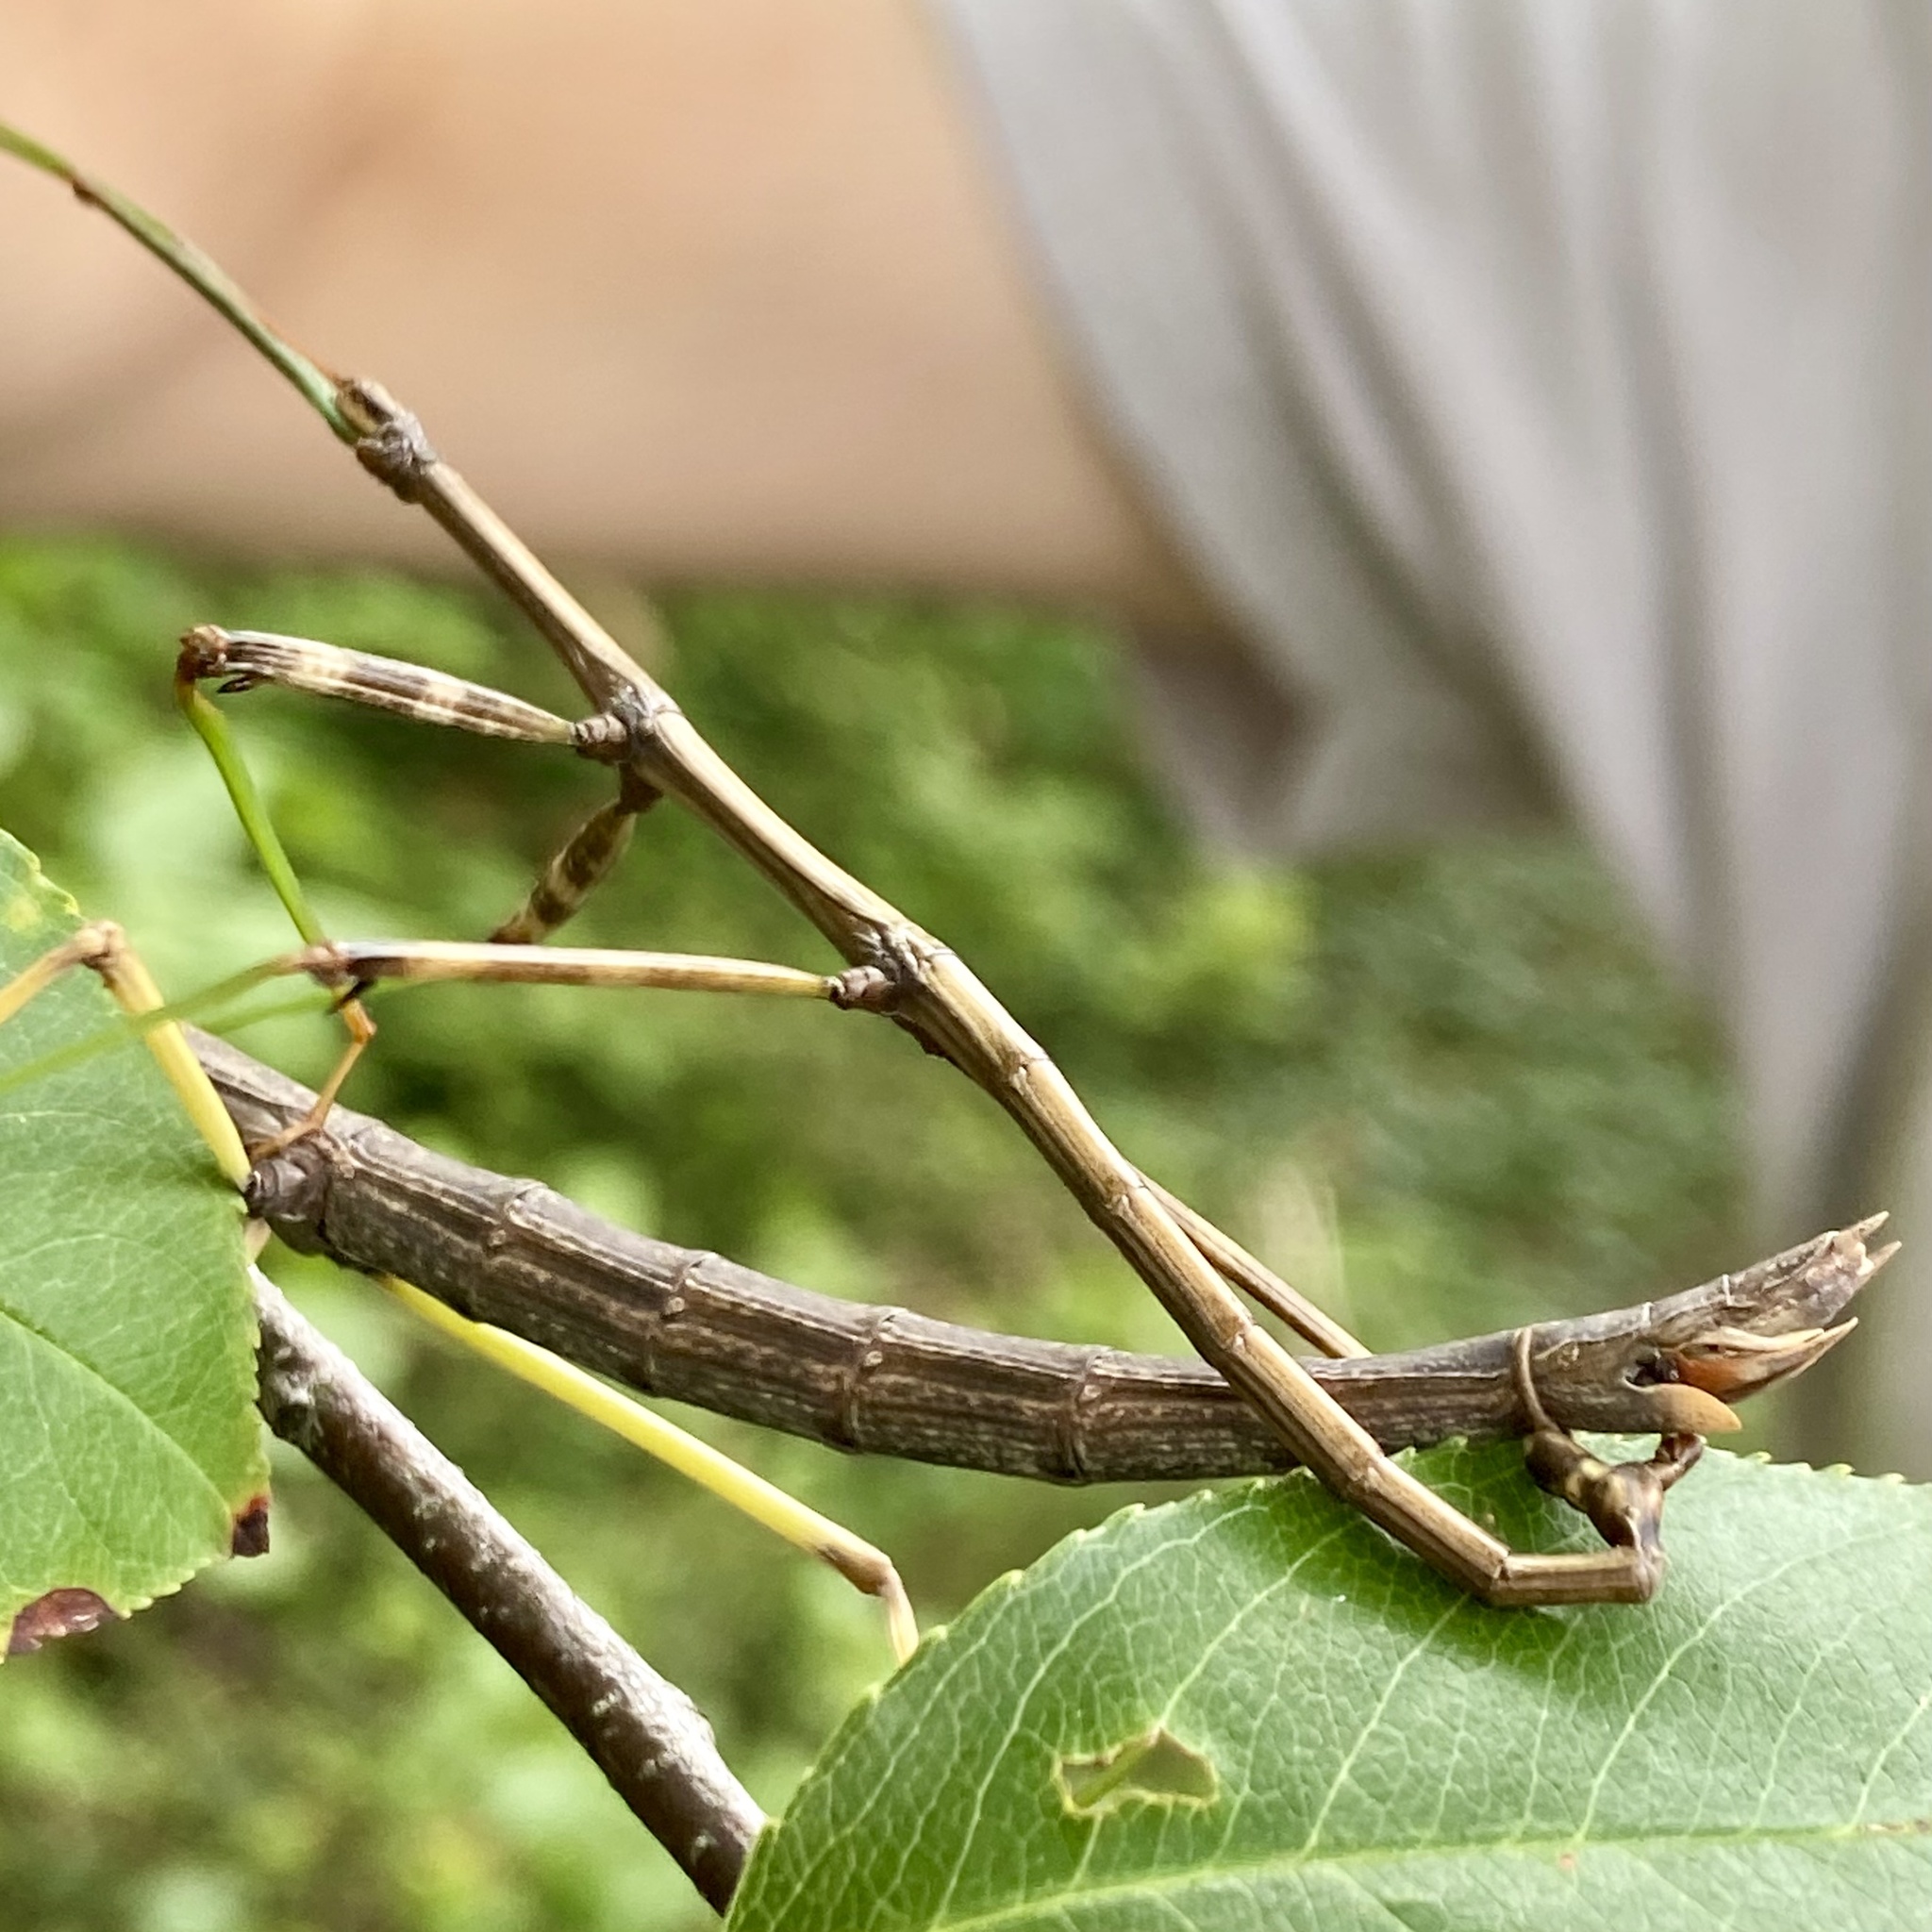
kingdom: Animalia
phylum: Arthropoda
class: Insecta
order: Phasmida
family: Diapheromeridae
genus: Diapheromera
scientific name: Diapheromera femorata
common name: Common american walkingstick
